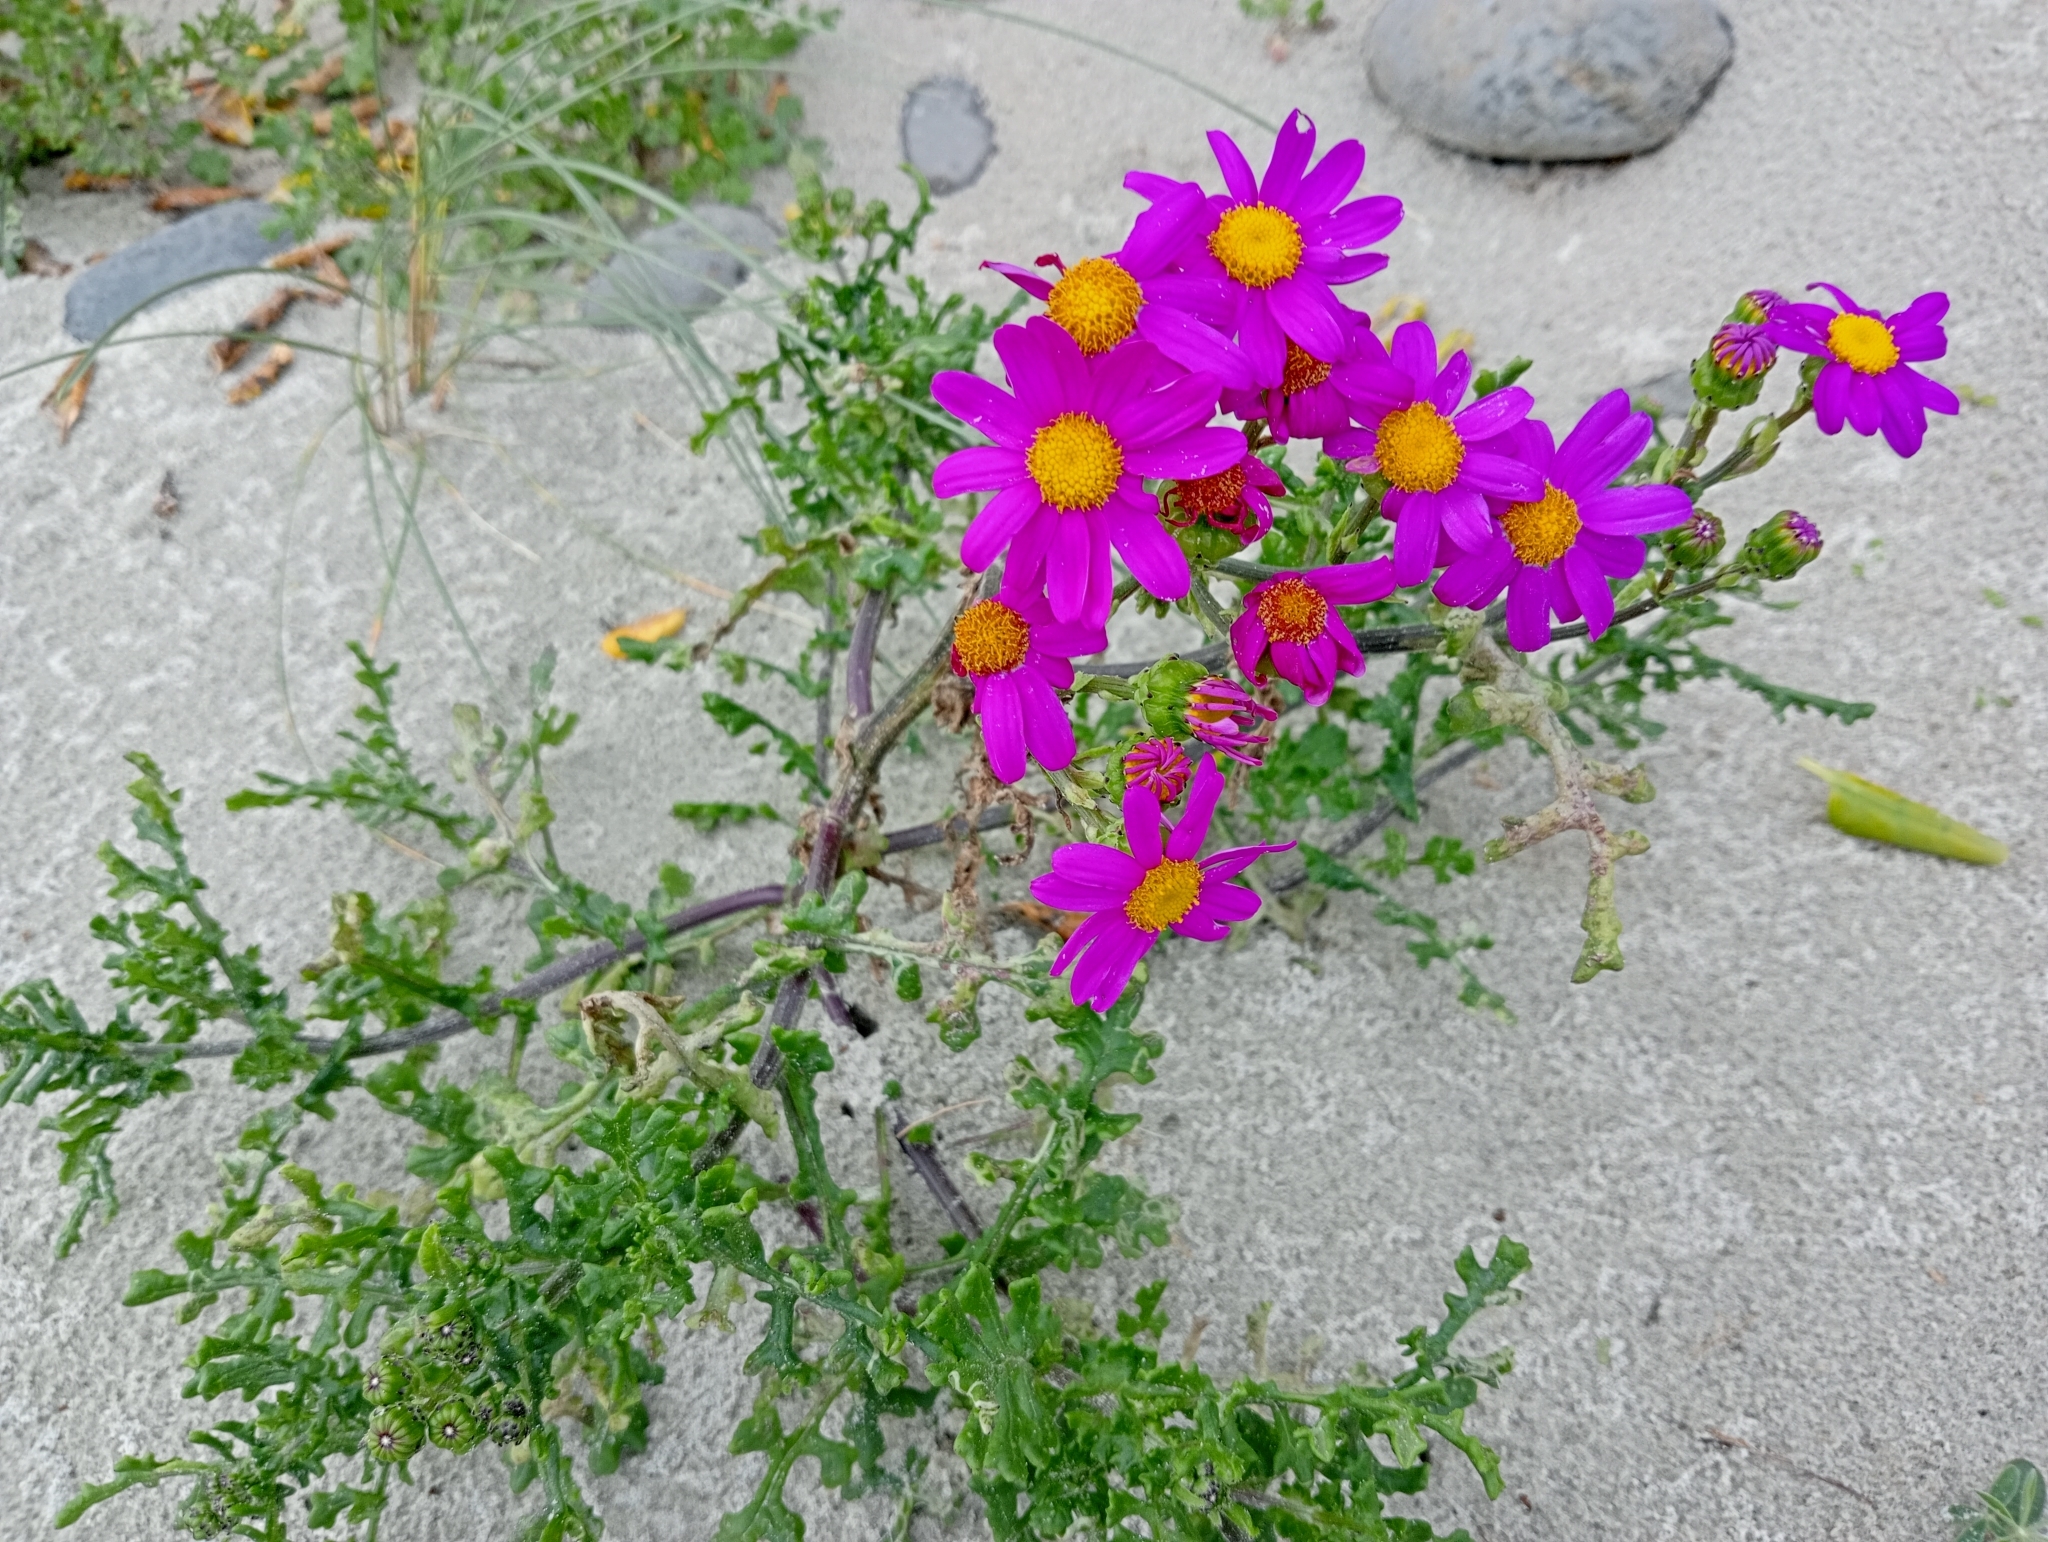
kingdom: Plantae
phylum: Tracheophyta
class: Magnoliopsida
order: Asterales
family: Asteraceae
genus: Senecio
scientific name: Senecio elegans
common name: Purple groundsel
